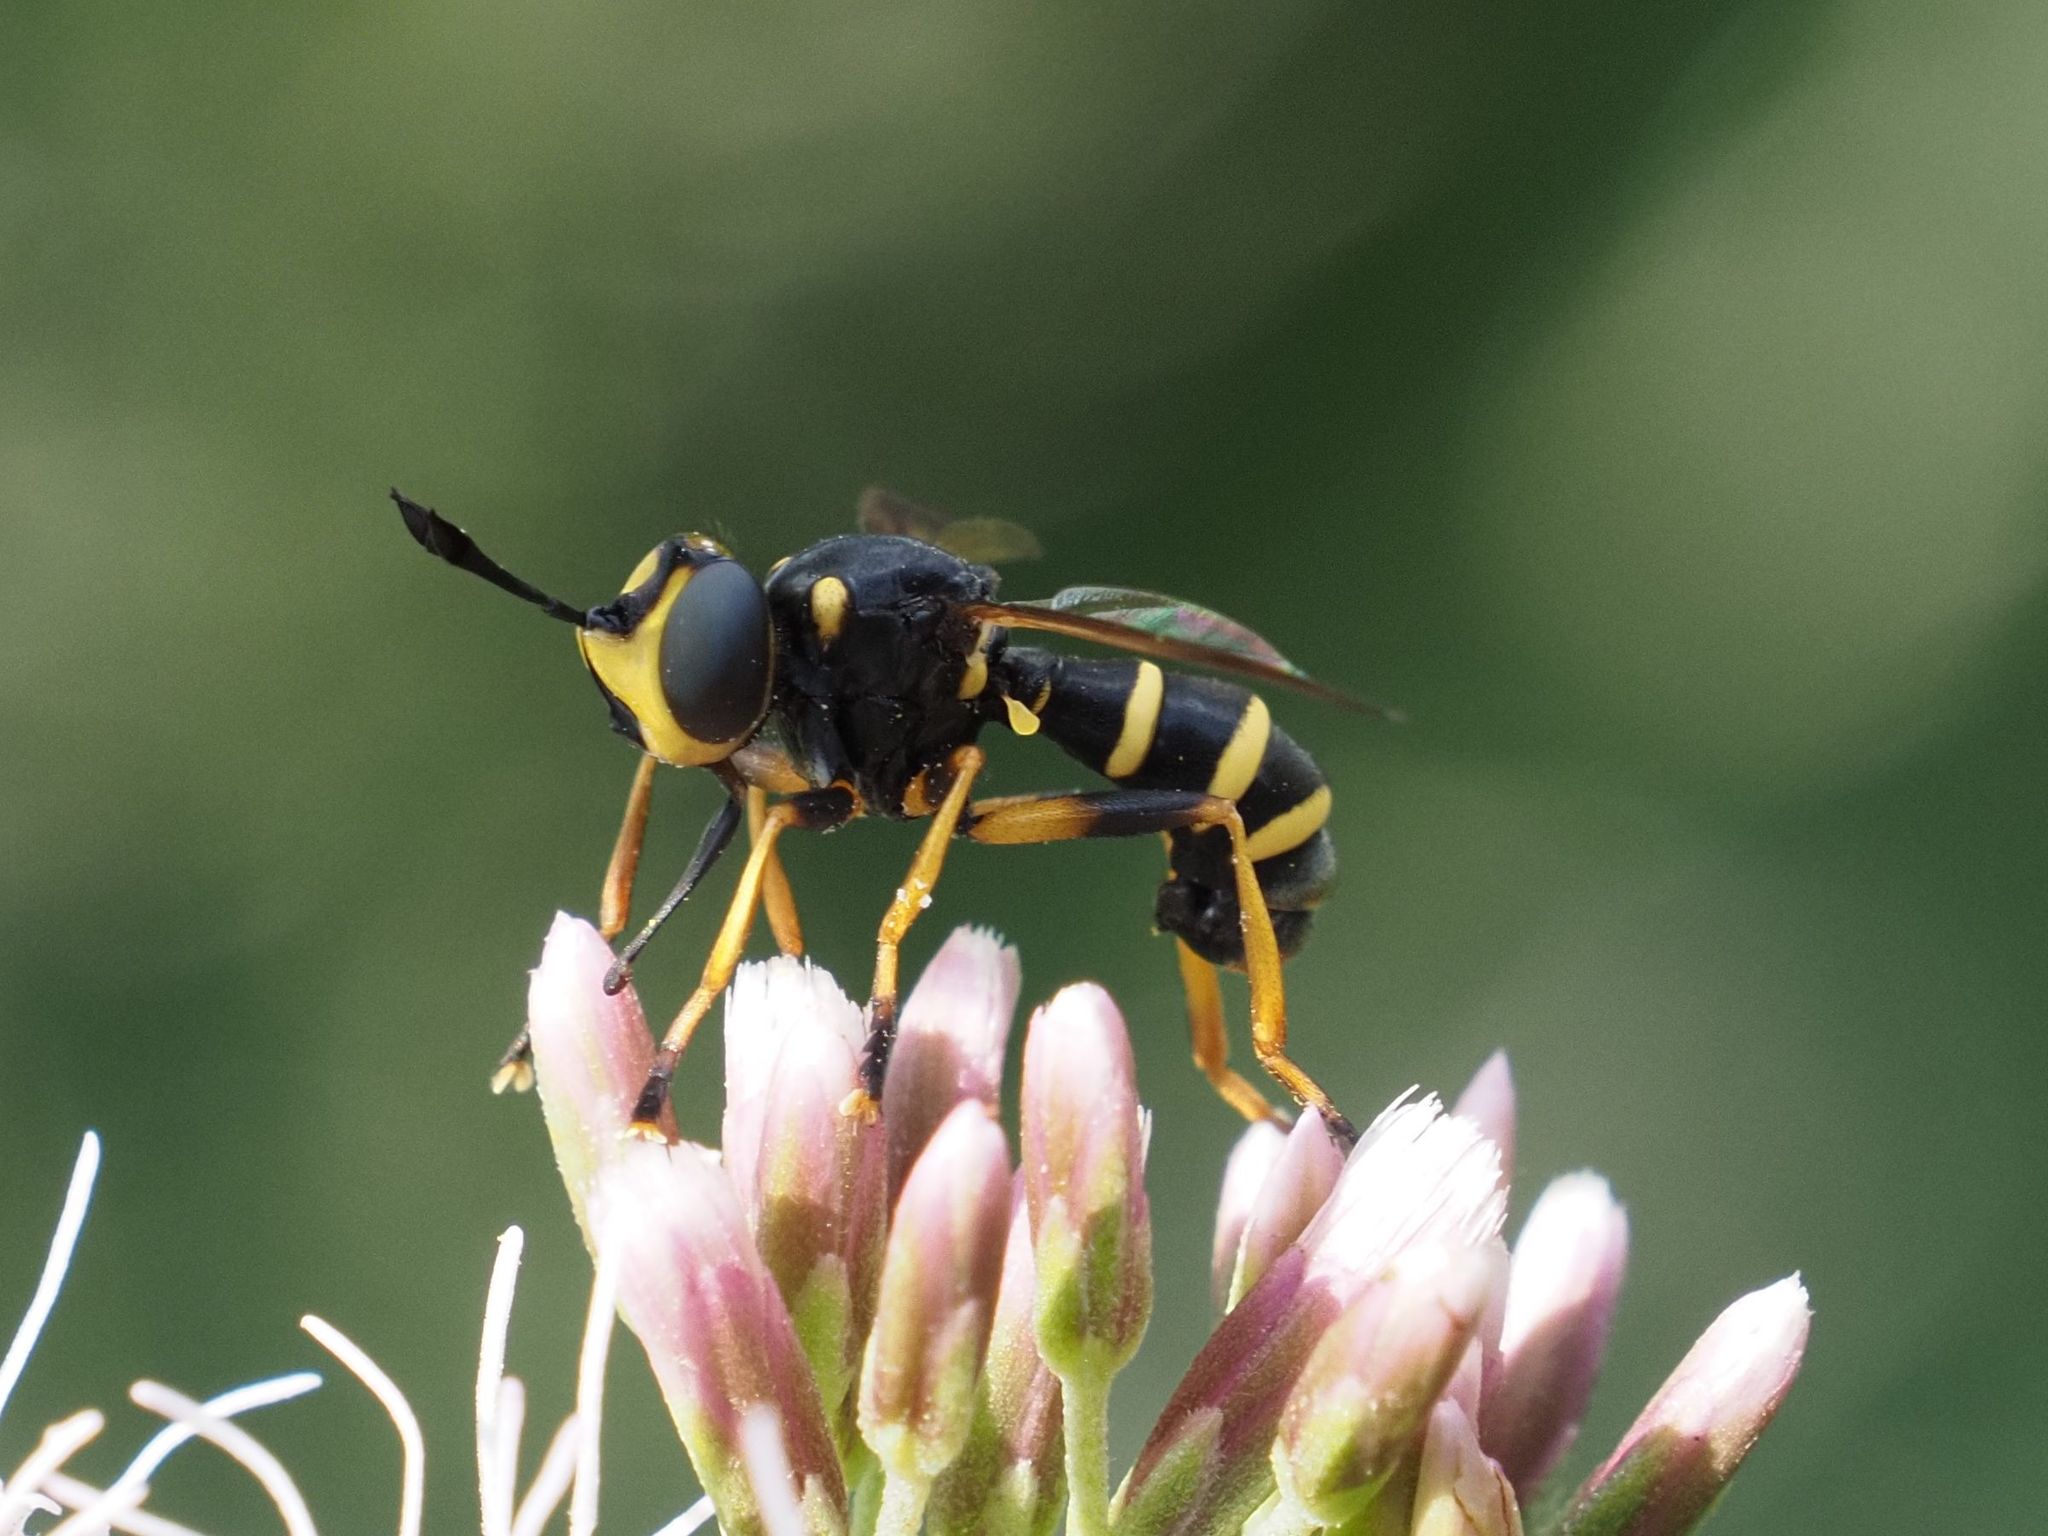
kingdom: Animalia
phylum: Arthropoda
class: Insecta
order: Diptera
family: Conopidae
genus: Conops
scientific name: Conops flavipes
